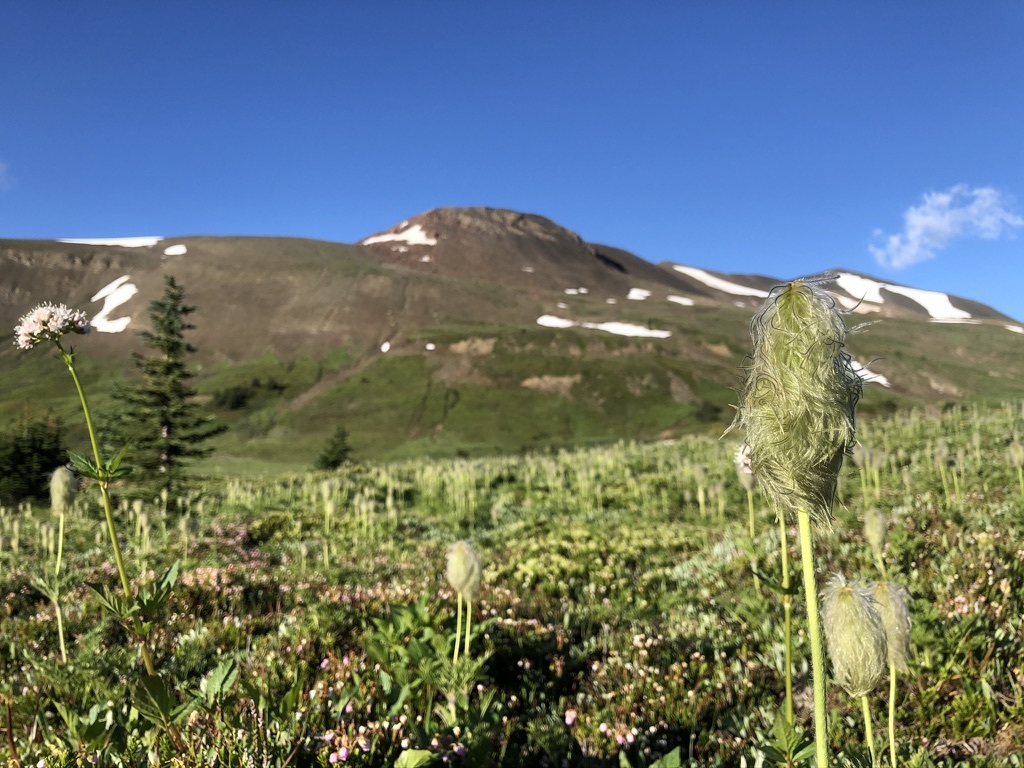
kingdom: Plantae
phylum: Tracheophyta
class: Magnoliopsida
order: Ranunculales
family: Ranunculaceae
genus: Pulsatilla
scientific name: Pulsatilla occidentalis
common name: Mountain pasqueflower
